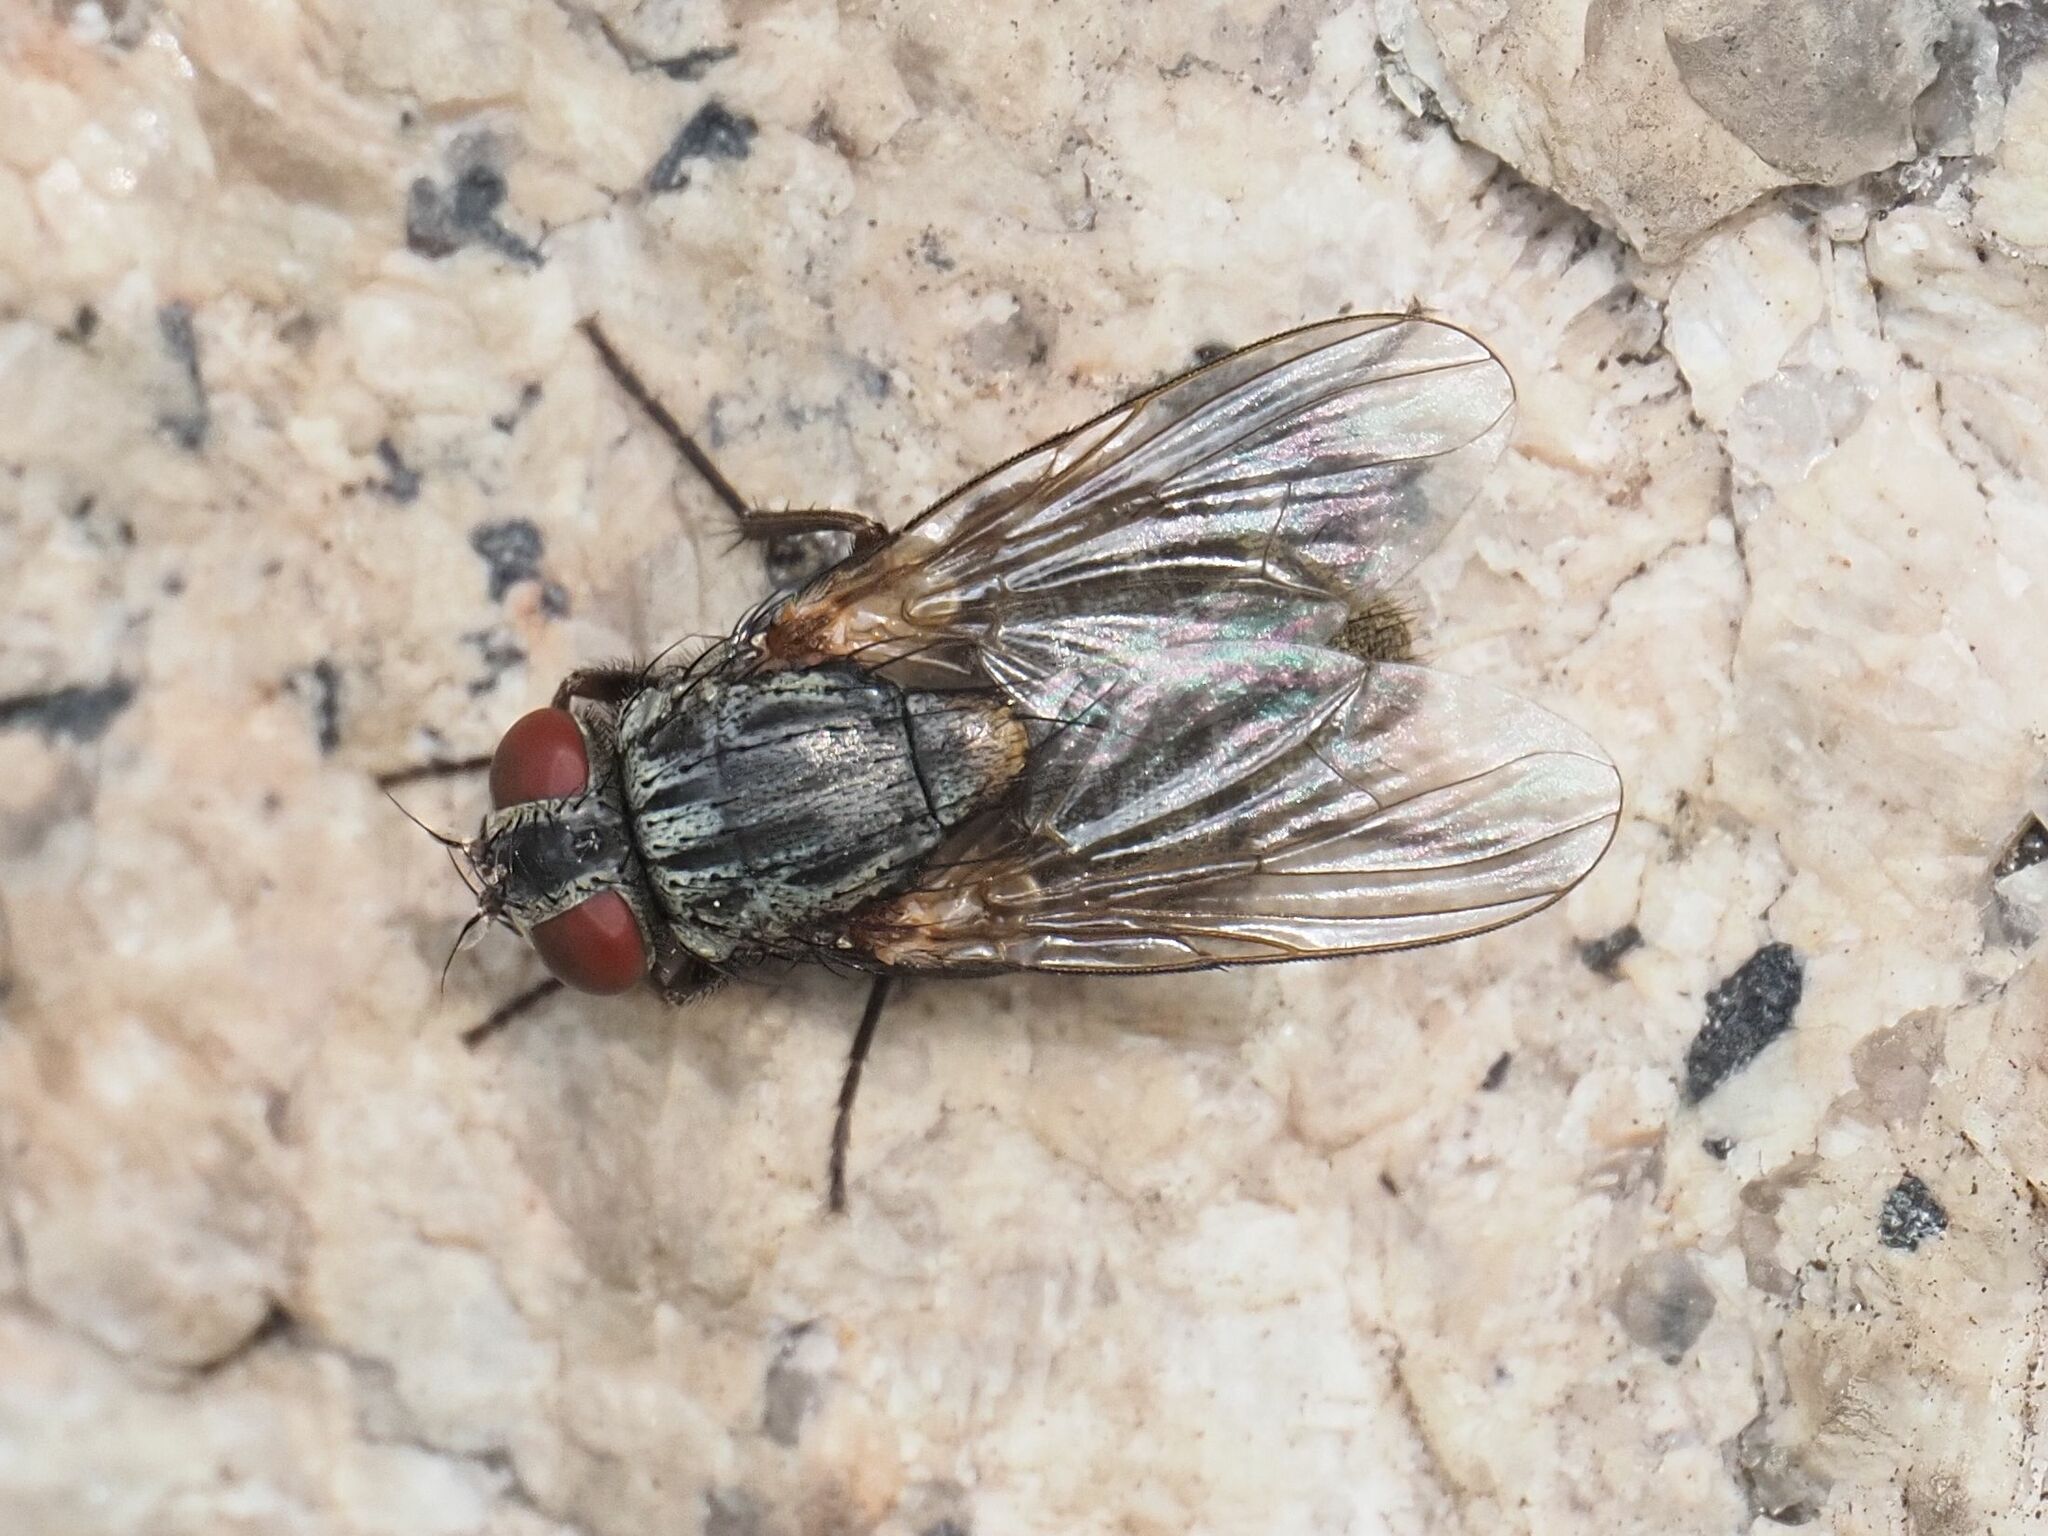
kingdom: Animalia
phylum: Arthropoda
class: Insecta
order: Diptera
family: Muscidae
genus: Muscina
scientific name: Muscina stabulans
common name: False stable fly
